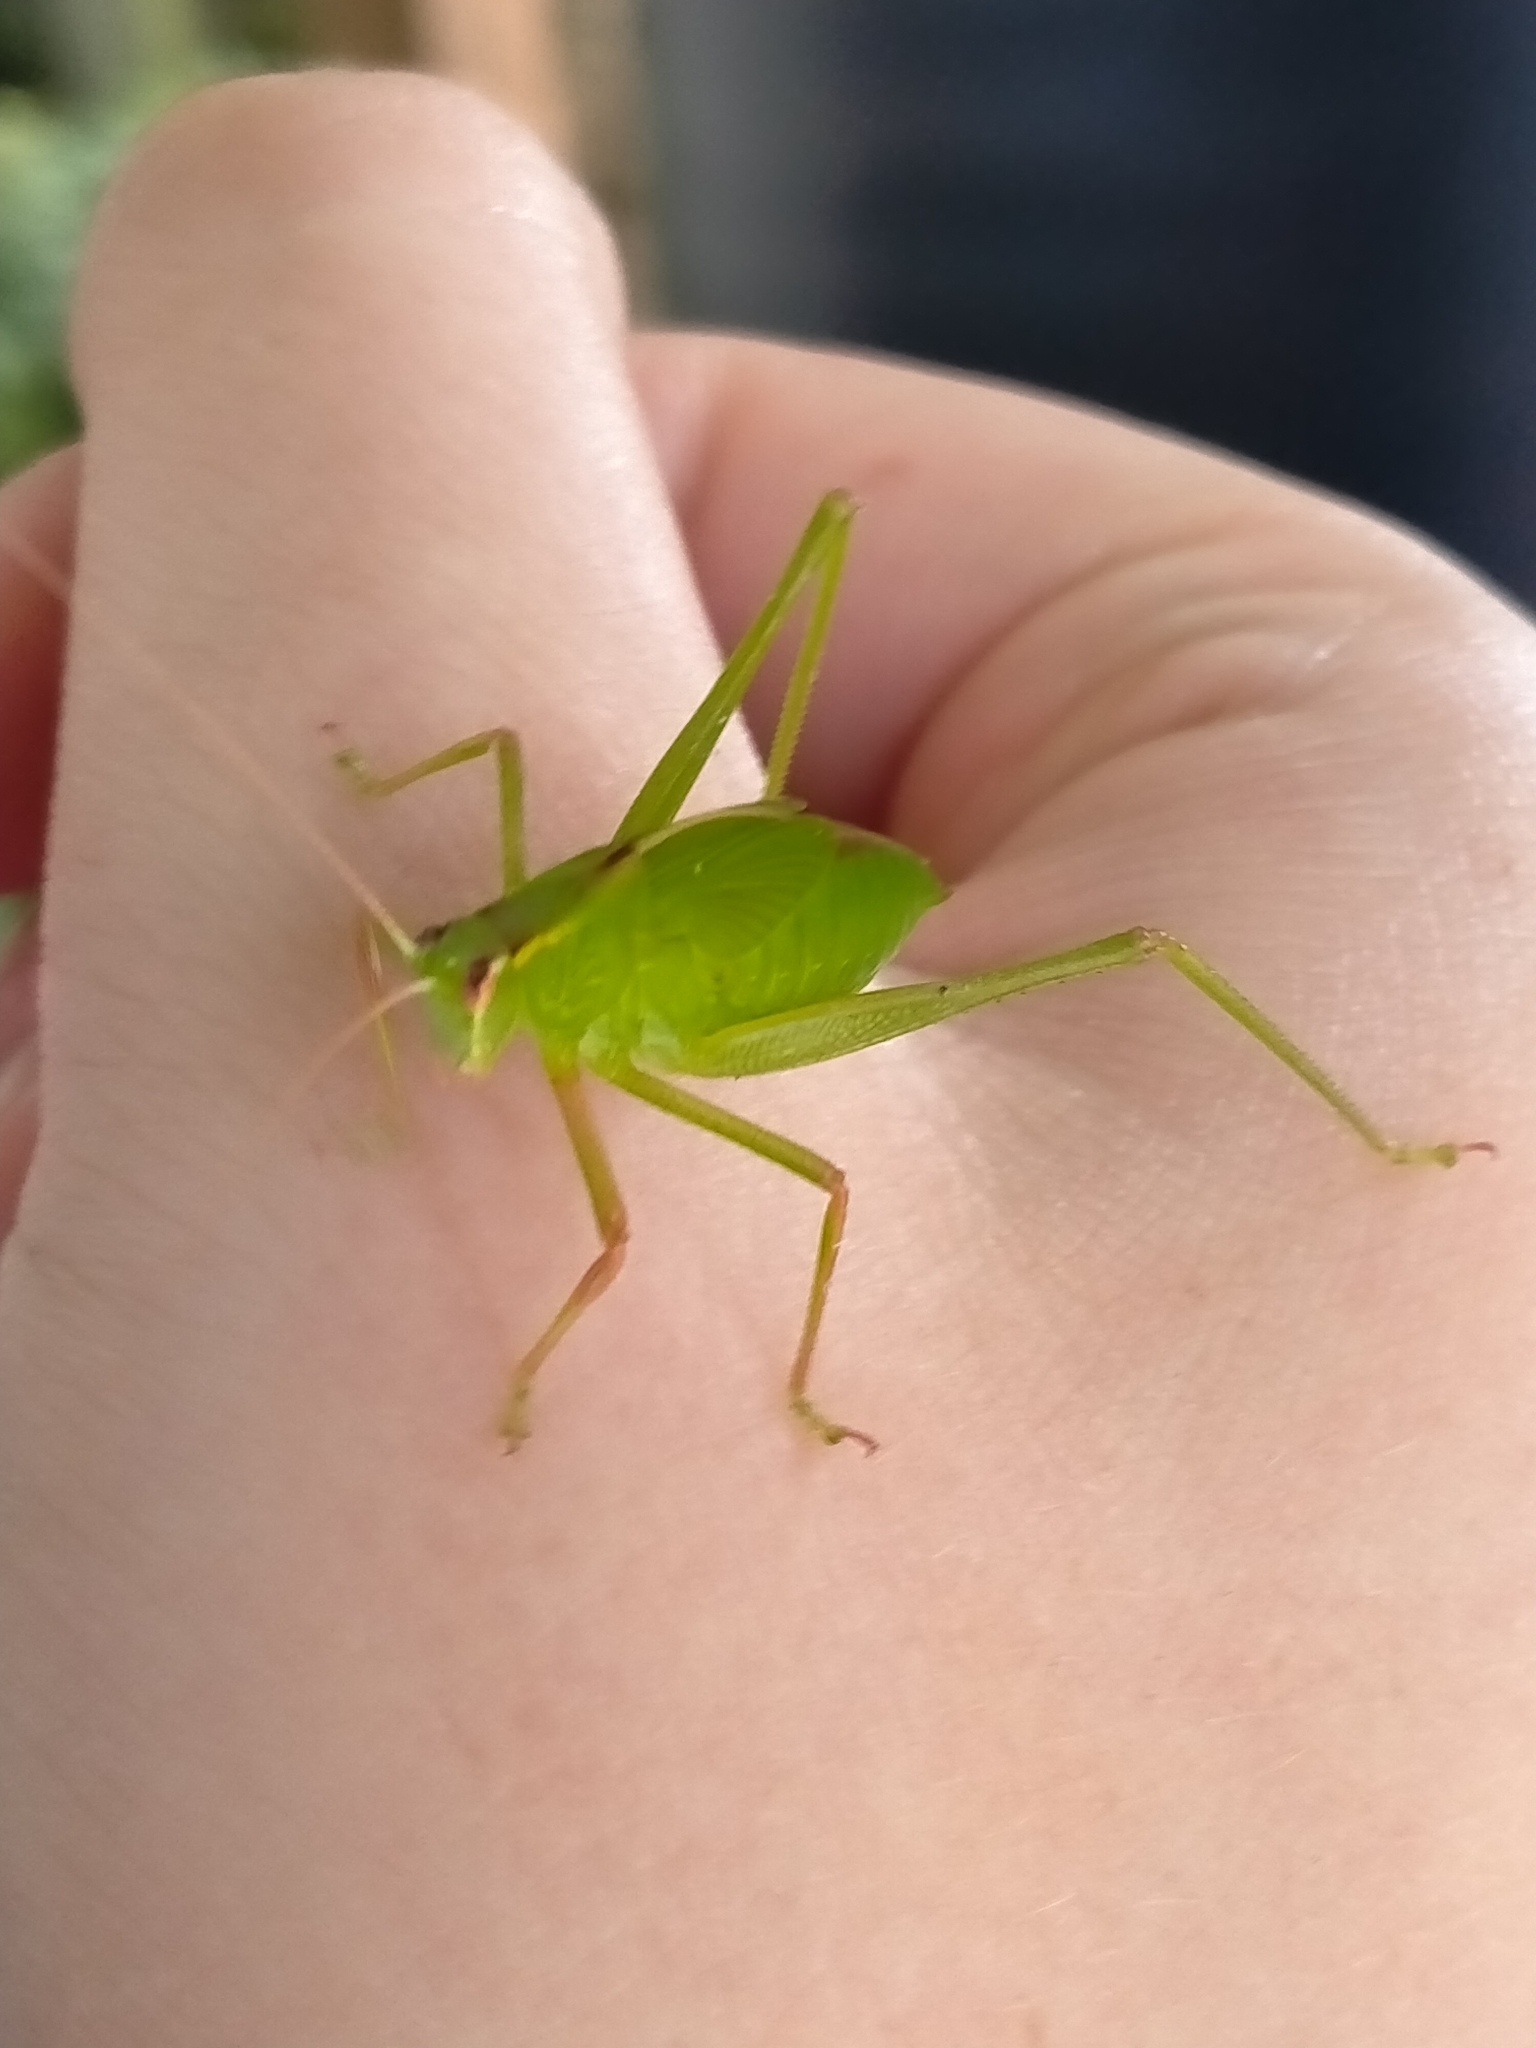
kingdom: Animalia
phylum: Arthropoda
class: Insecta
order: Orthoptera
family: Tettigoniidae
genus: Caedicia
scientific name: Caedicia simplex
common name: Common garden katydid
